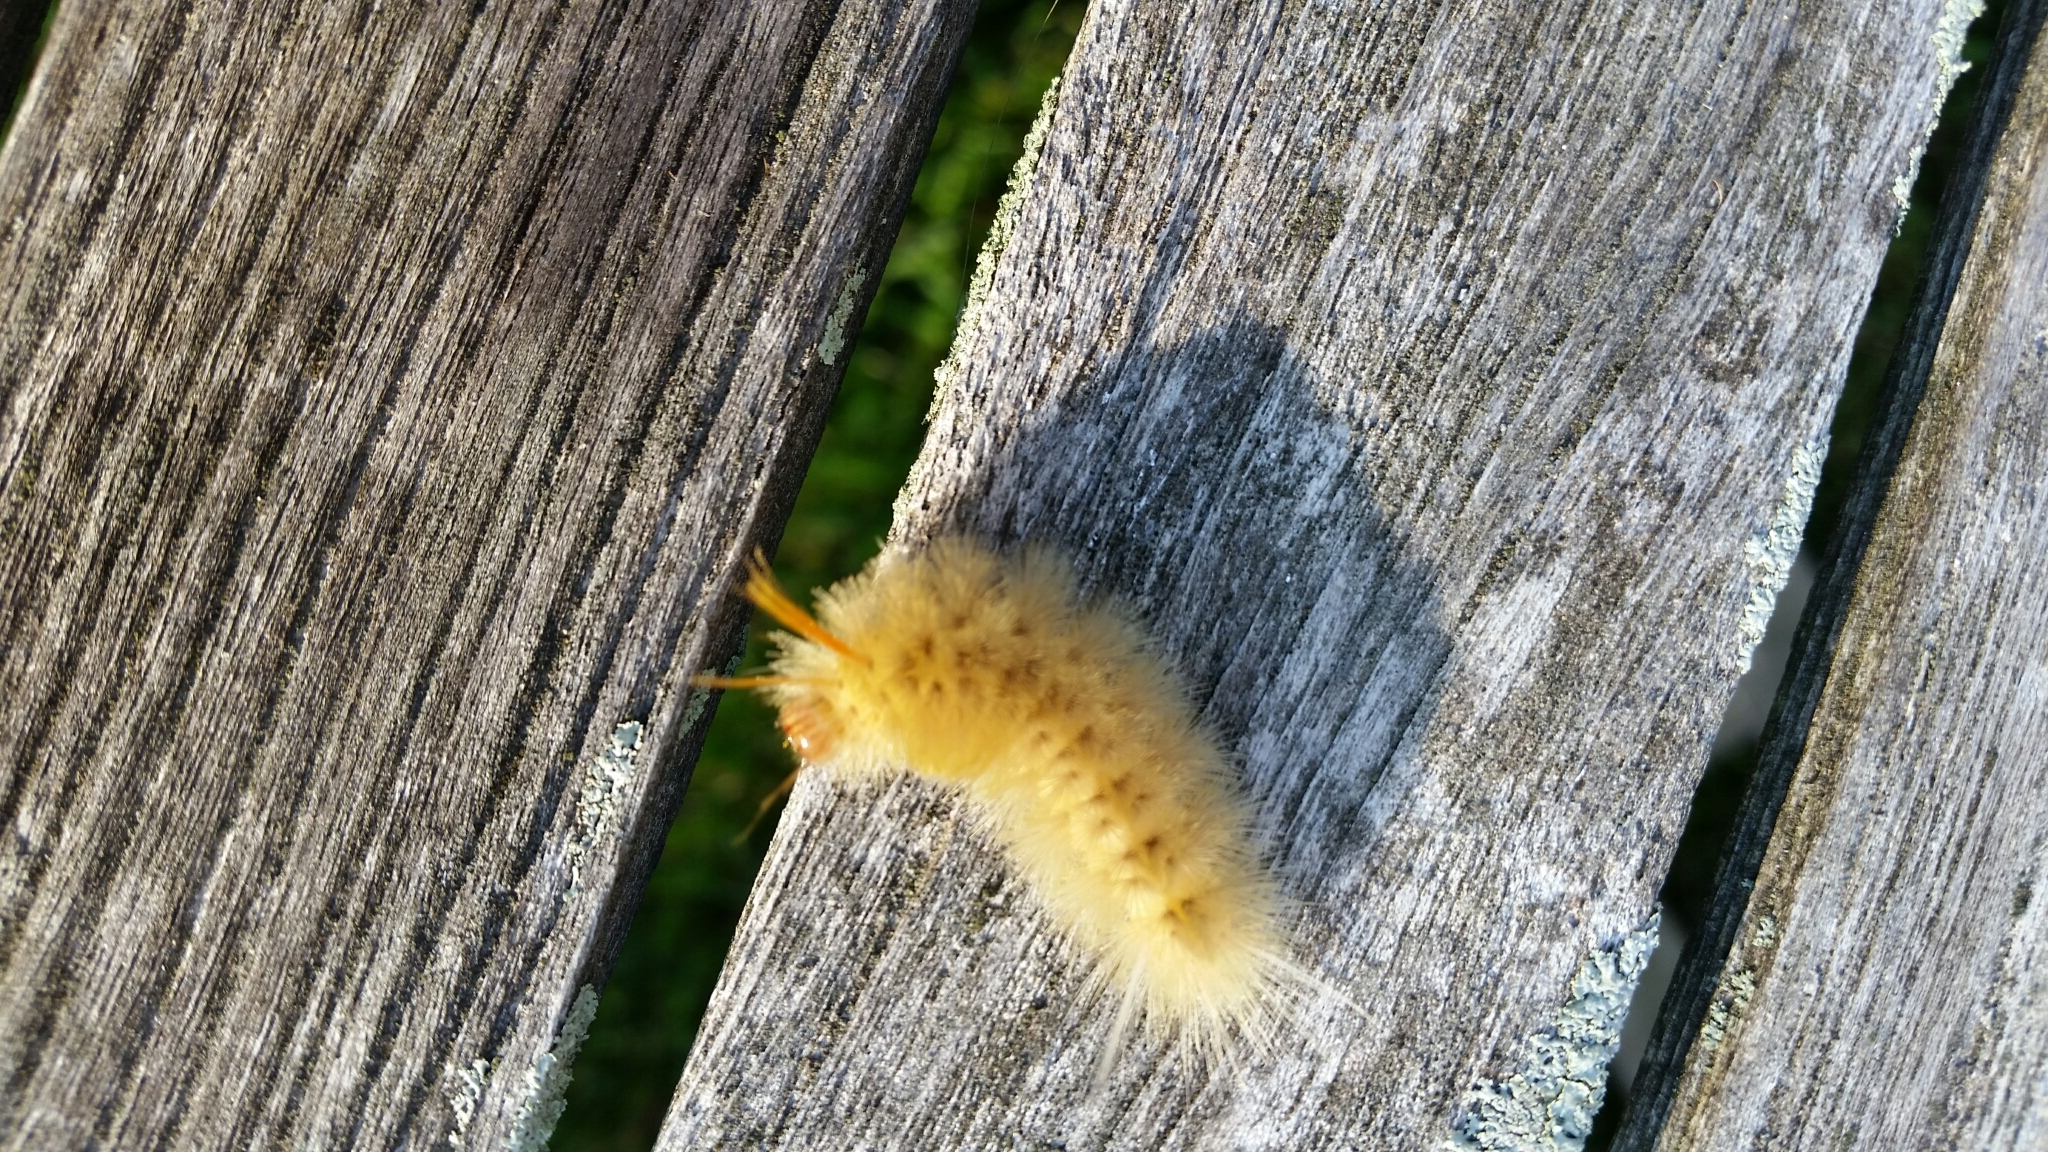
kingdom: Animalia
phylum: Arthropoda
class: Insecta
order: Lepidoptera
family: Erebidae
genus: Halysidota
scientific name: Halysidota harrisii
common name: Sycamore tussock moth
